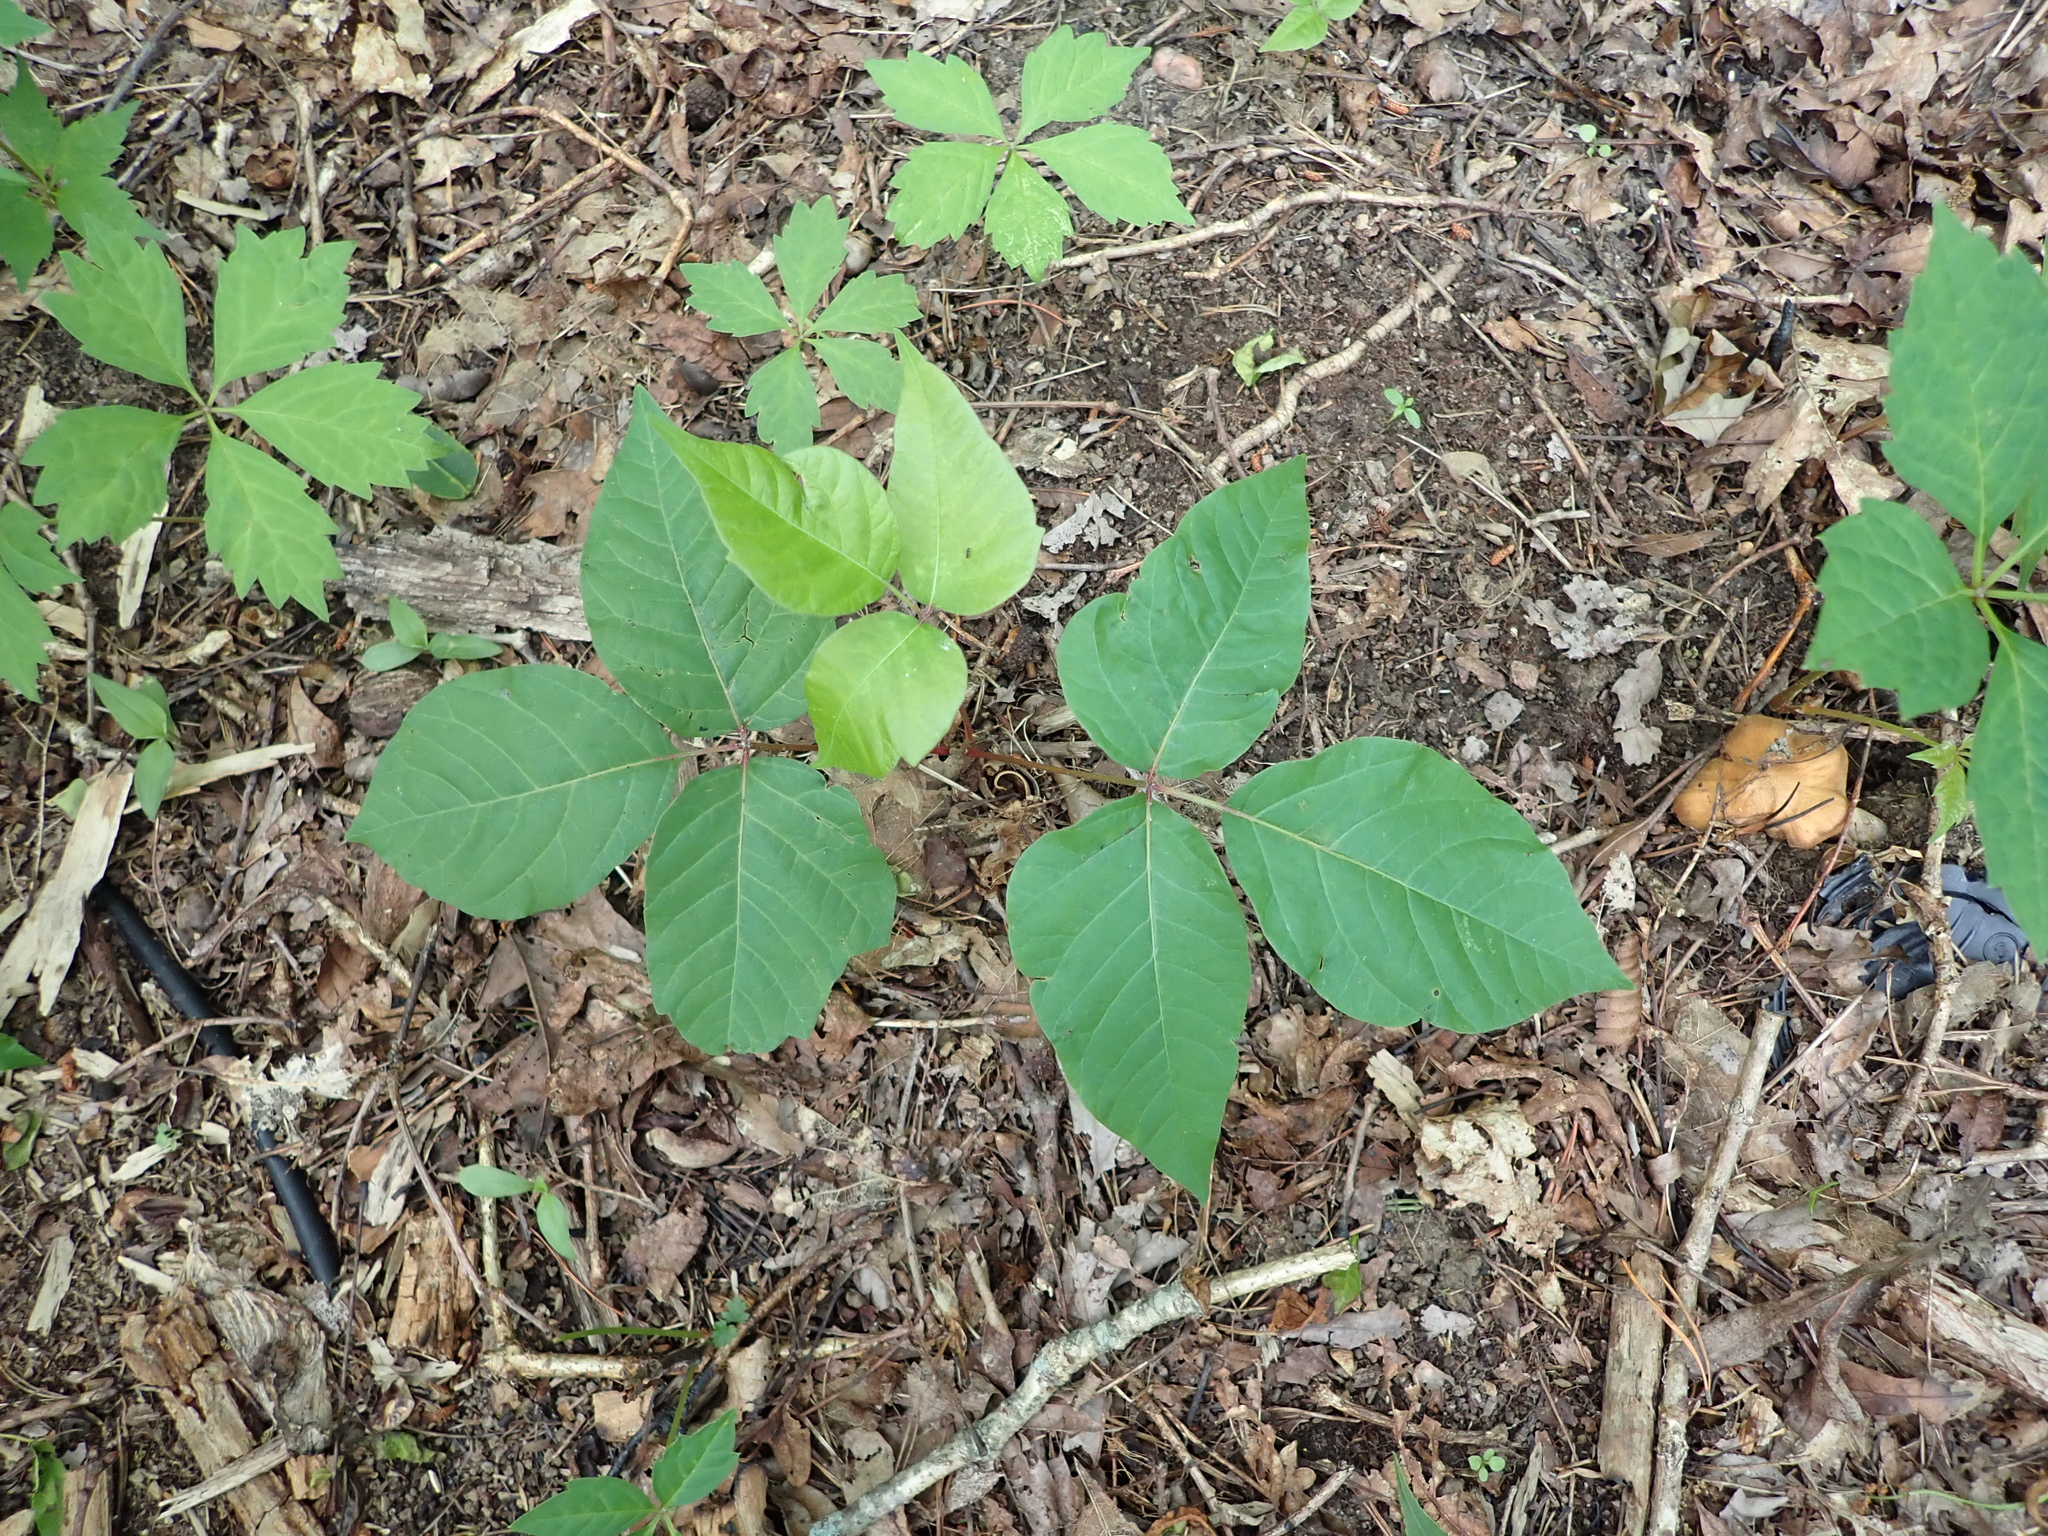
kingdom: Plantae
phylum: Tracheophyta
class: Magnoliopsida
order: Sapindales
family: Anacardiaceae
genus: Toxicodendron
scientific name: Toxicodendron radicans
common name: Poison ivy
